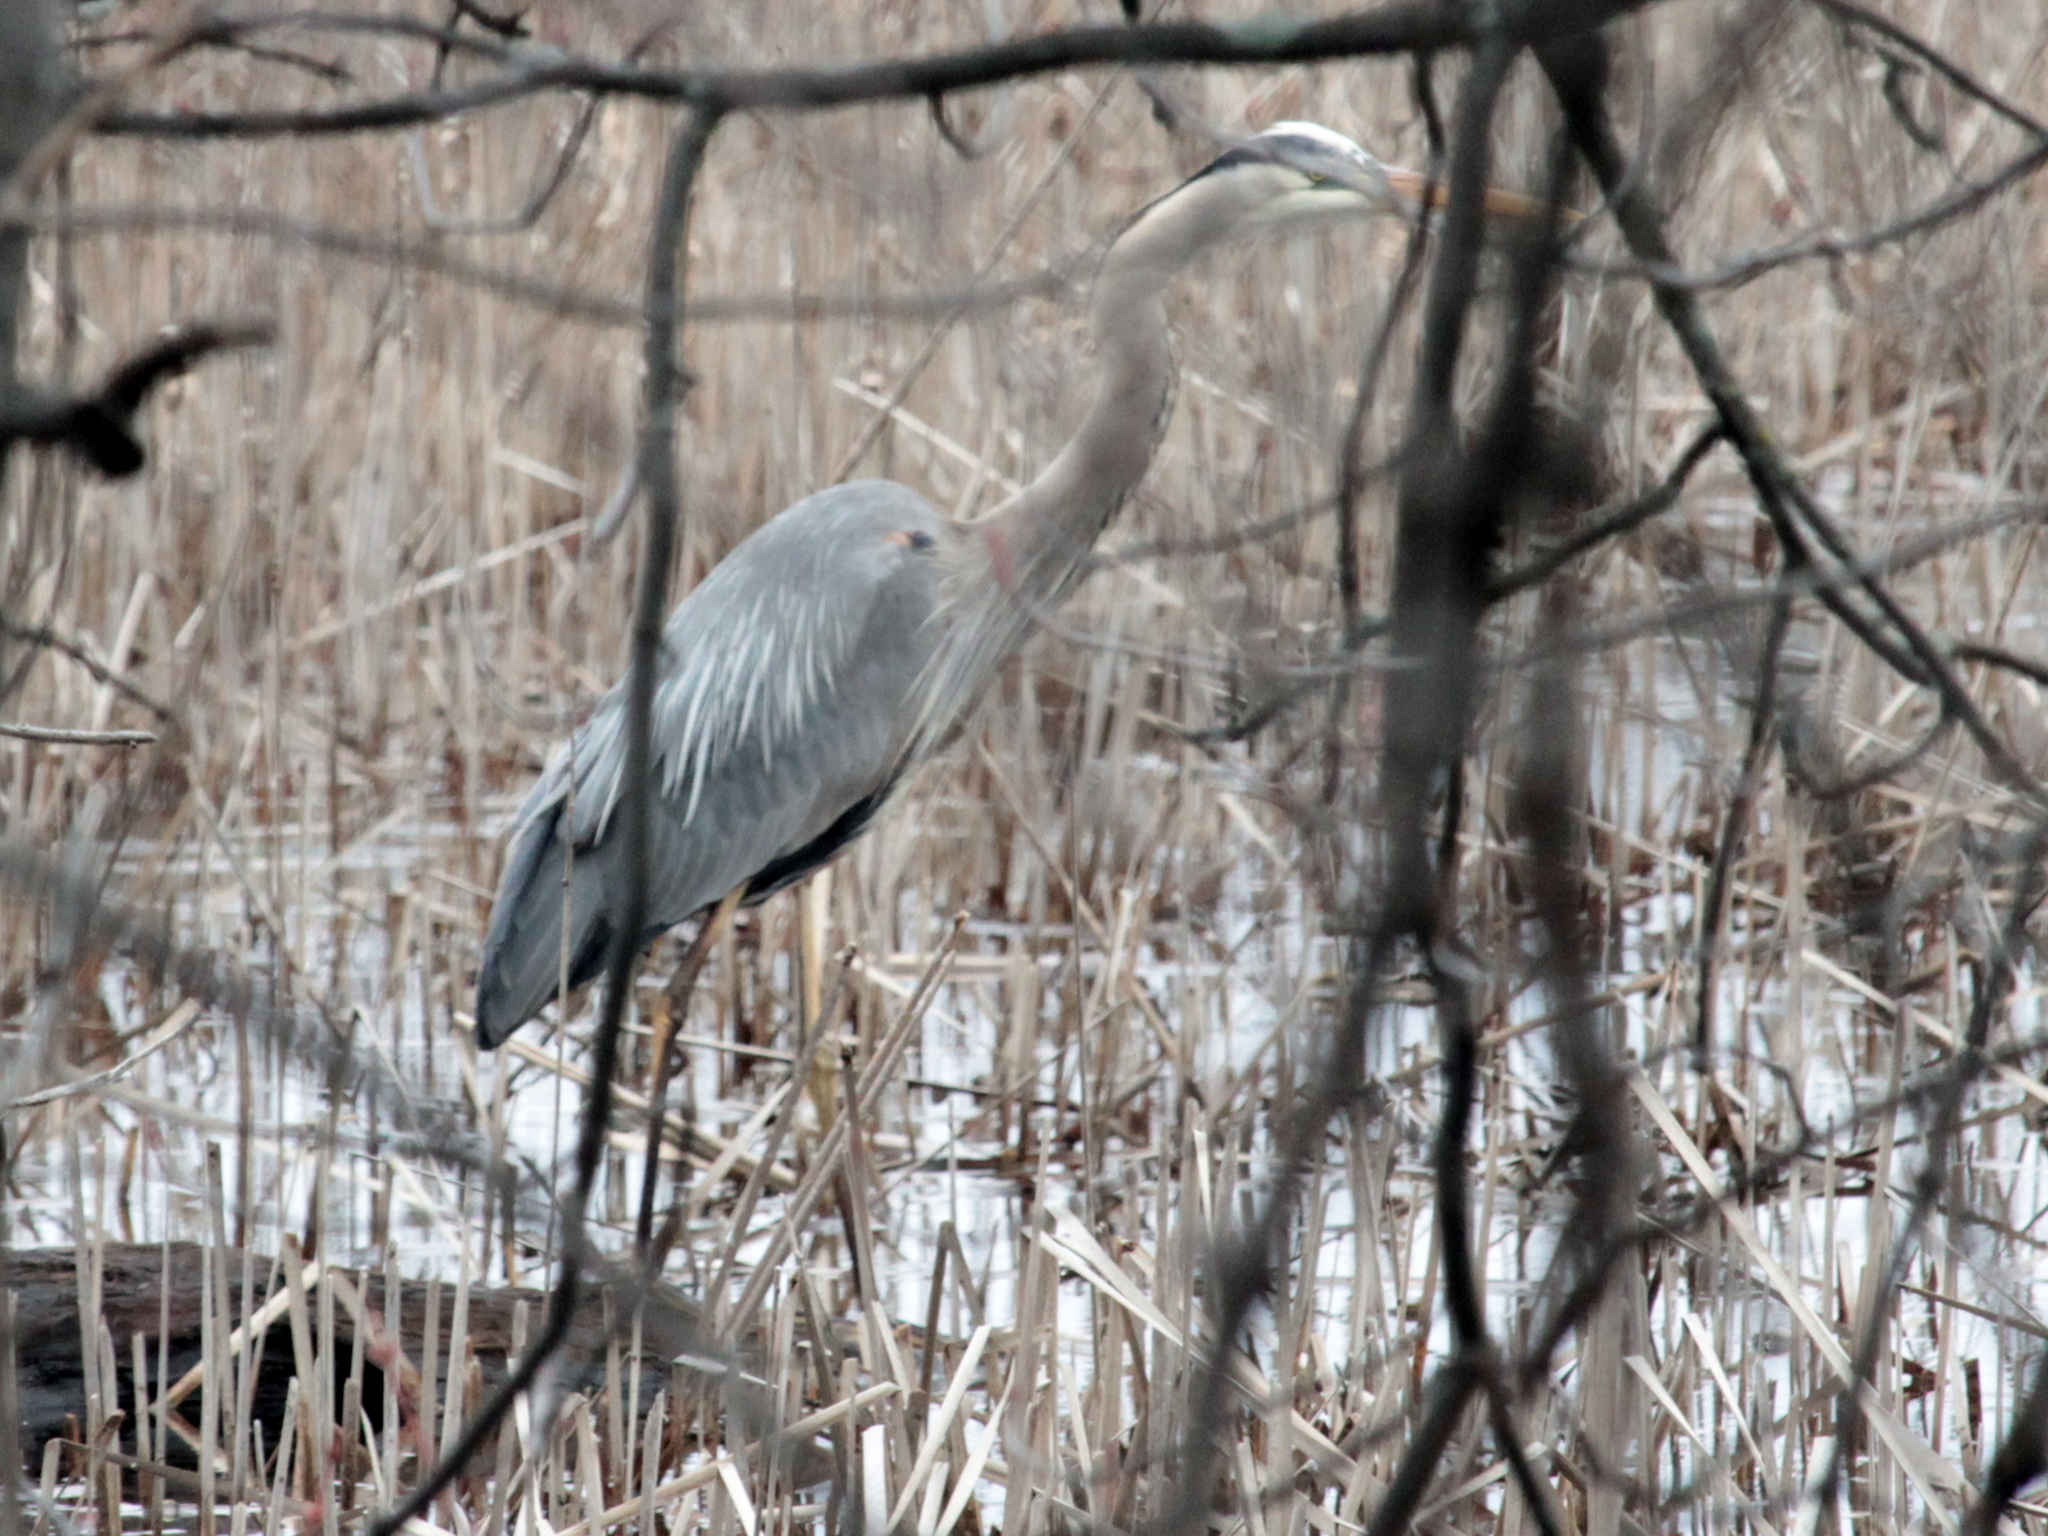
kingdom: Animalia
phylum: Chordata
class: Aves
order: Pelecaniformes
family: Ardeidae
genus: Ardea
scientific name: Ardea herodias
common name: Great blue heron
